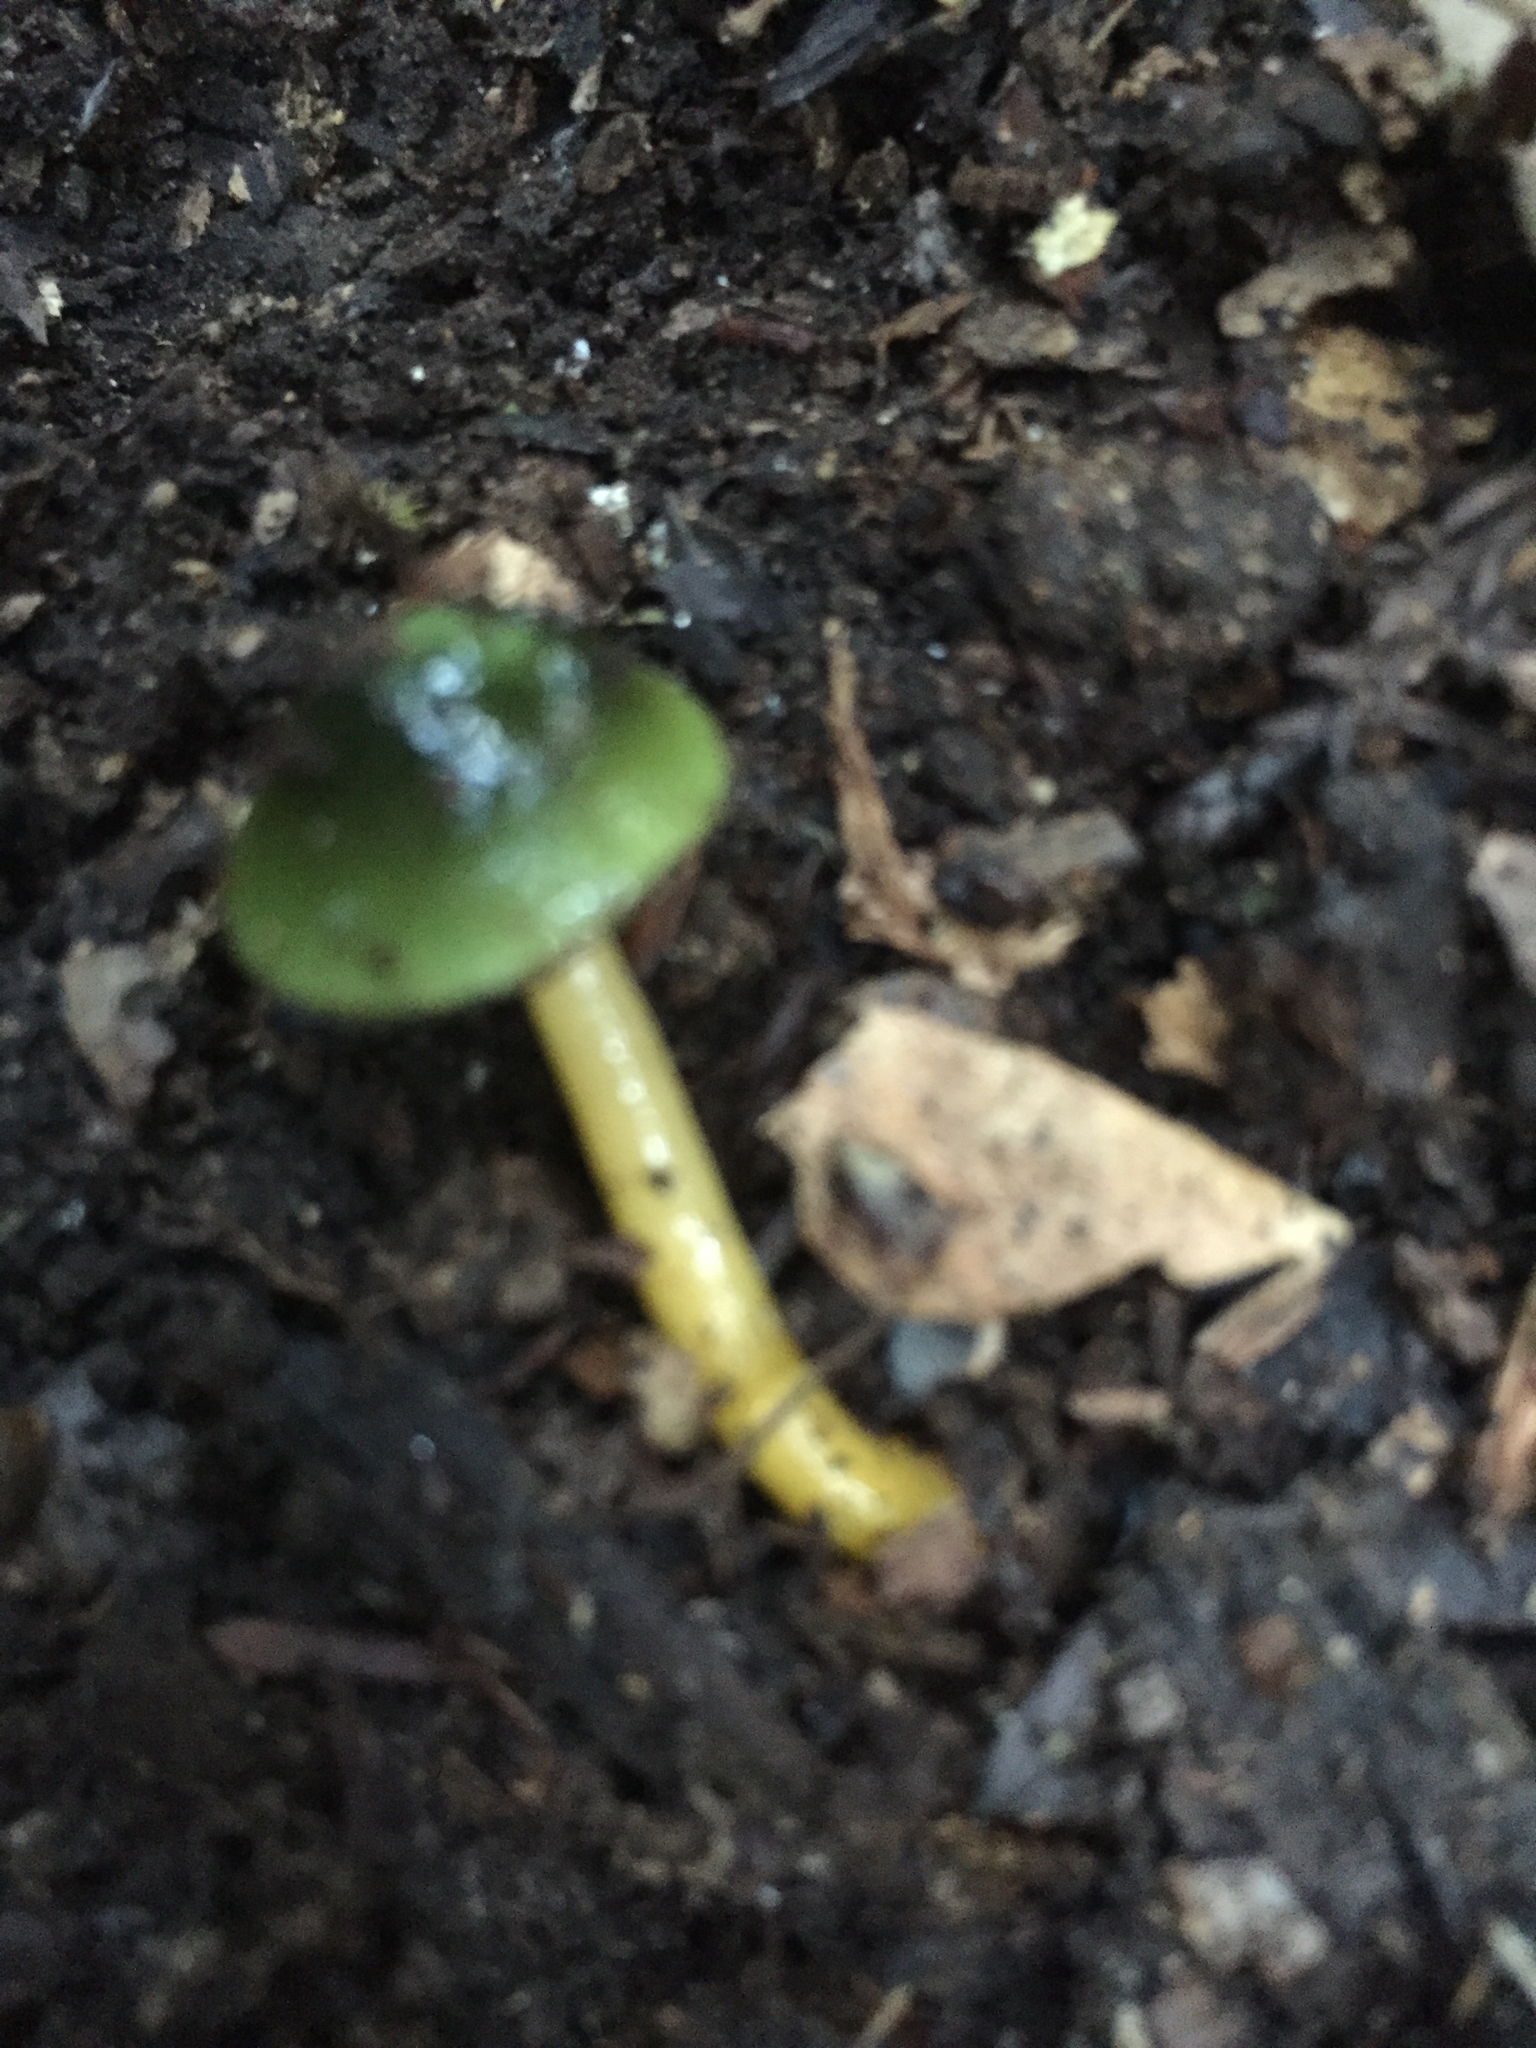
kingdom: Fungi
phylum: Basidiomycota
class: Agaricomycetes
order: Agaricales
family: Hygrophoraceae
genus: Gliophorus
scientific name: Gliophorus psittacinus
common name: Parrot wax-cap
